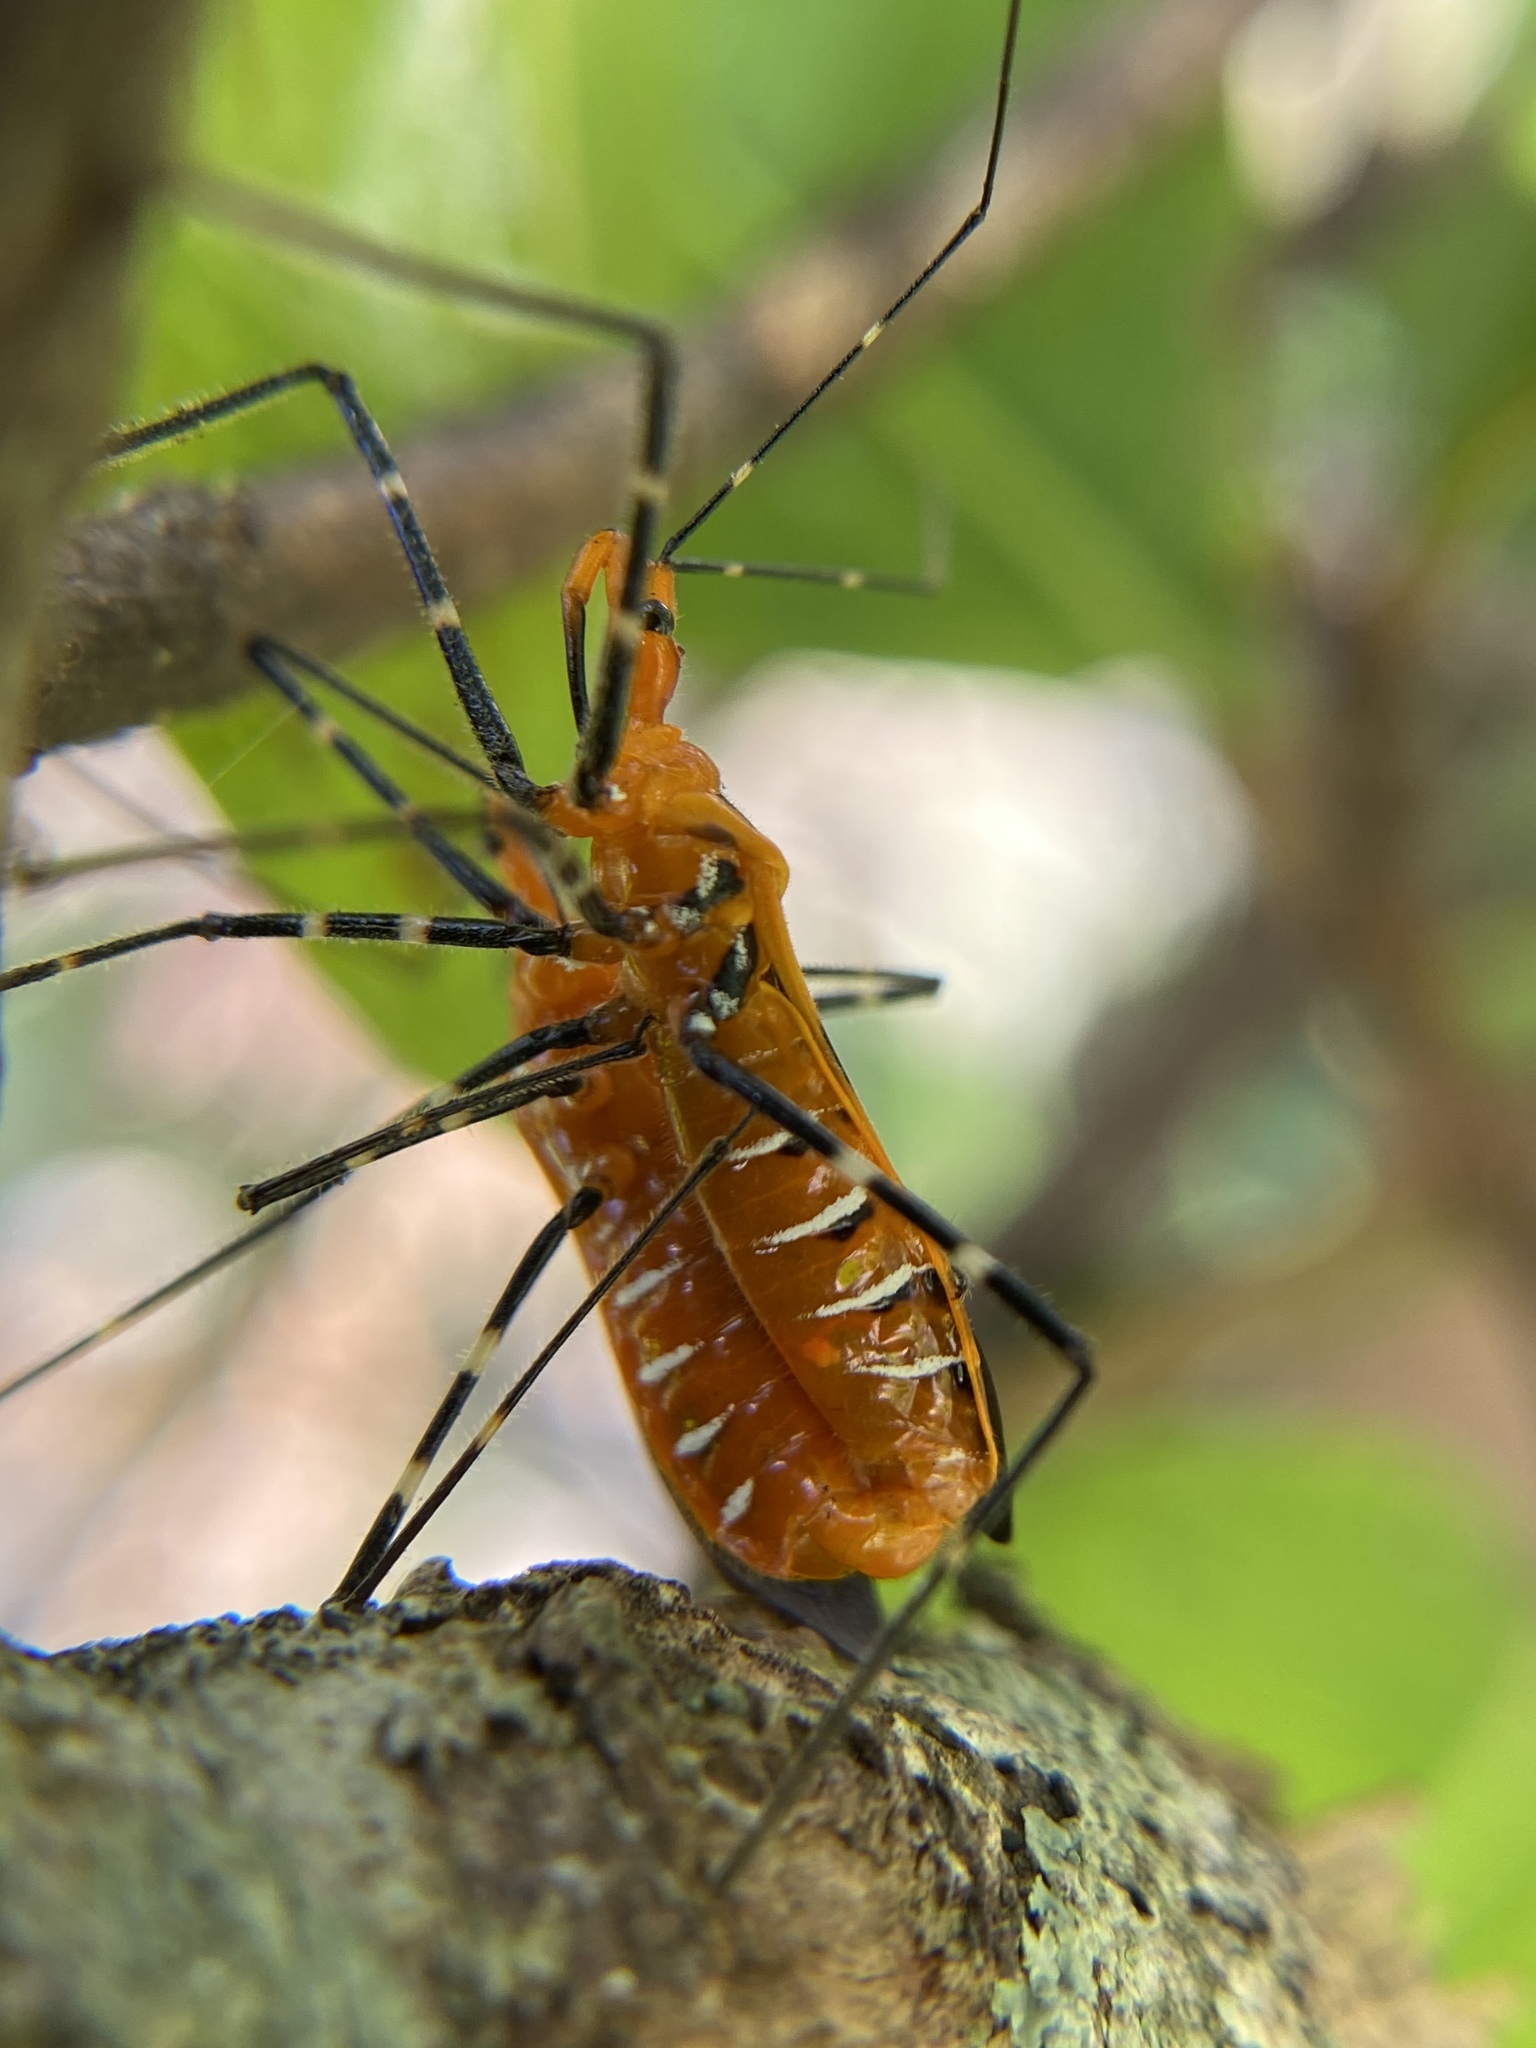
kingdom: Animalia
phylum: Arthropoda
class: Insecta
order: Hemiptera
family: Reduviidae
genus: Zelus
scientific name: Zelus longipes
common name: Milkweed assassin bug
